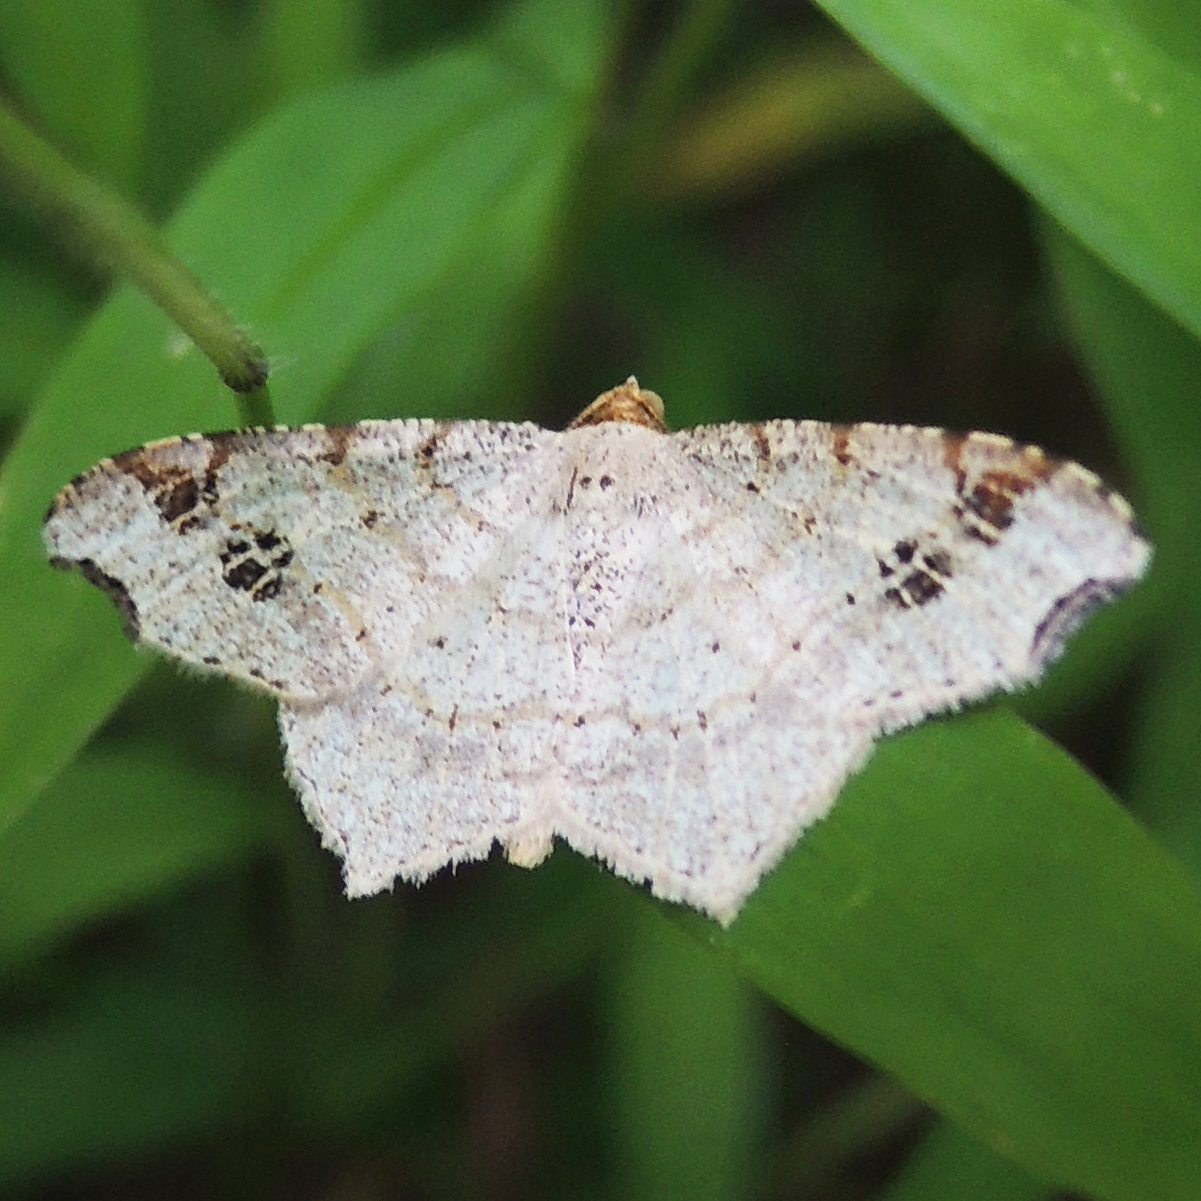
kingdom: Animalia
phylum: Arthropoda
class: Insecta
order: Lepidoptera
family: Geometridae
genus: Macaria
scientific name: Macaria aemulataria
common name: Common angle
